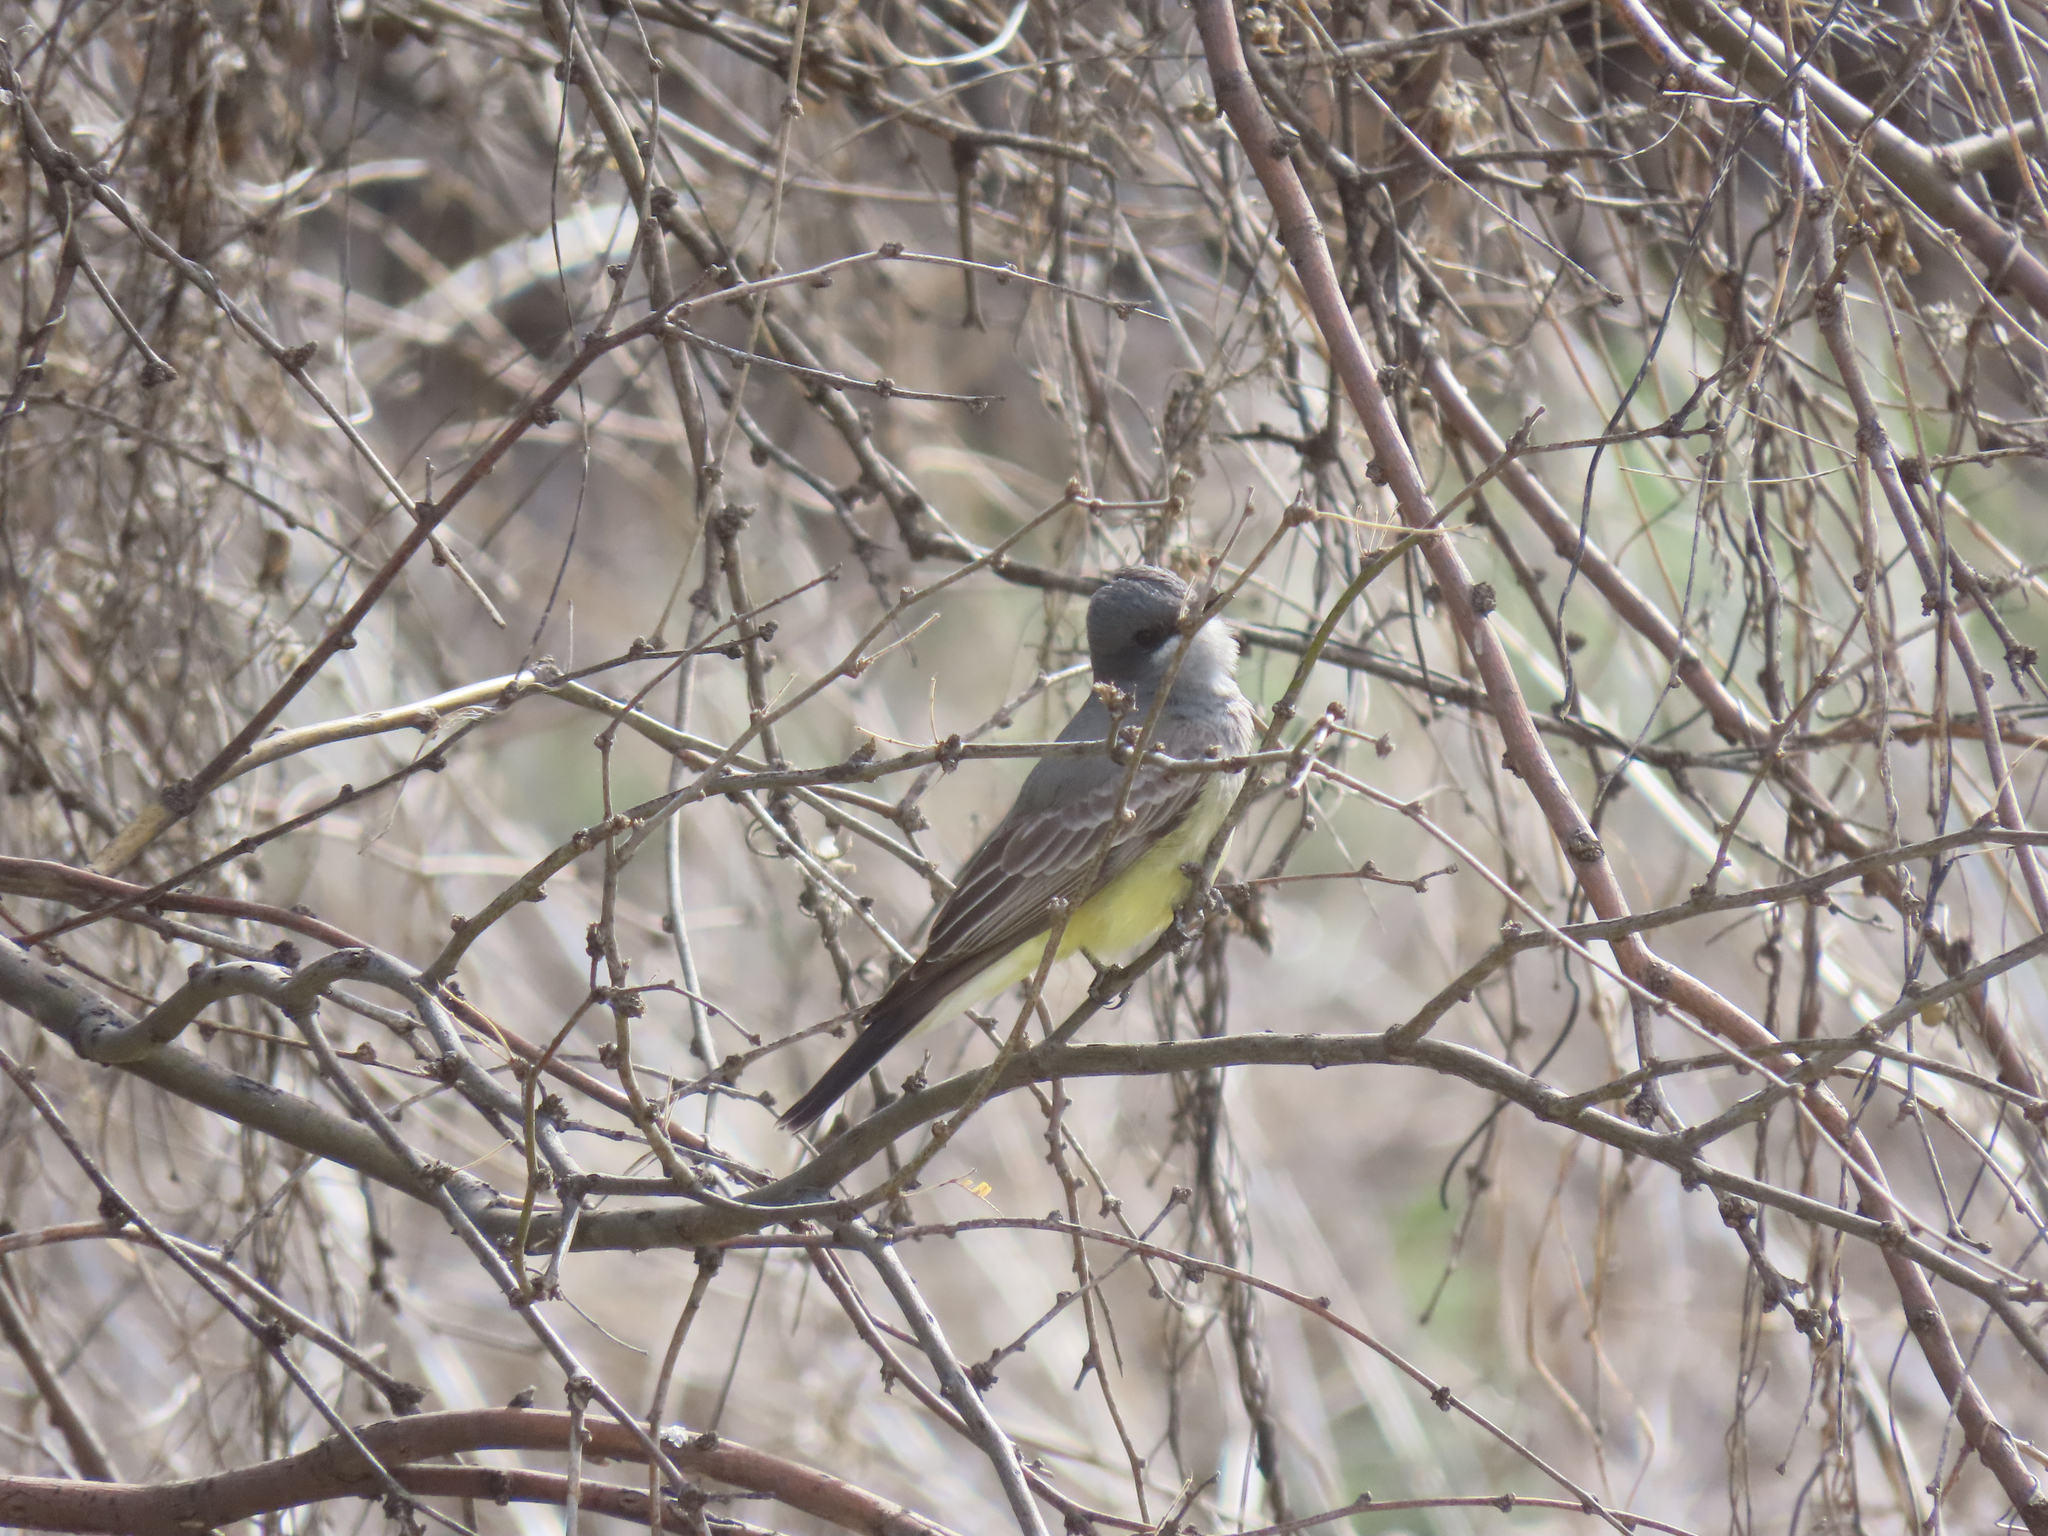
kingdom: Animalia
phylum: Chordata
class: Aves
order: Passeriformes
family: Tyrannidae
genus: Tyrannus
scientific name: Tyrannus vociferans
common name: Cassin's kingbird
